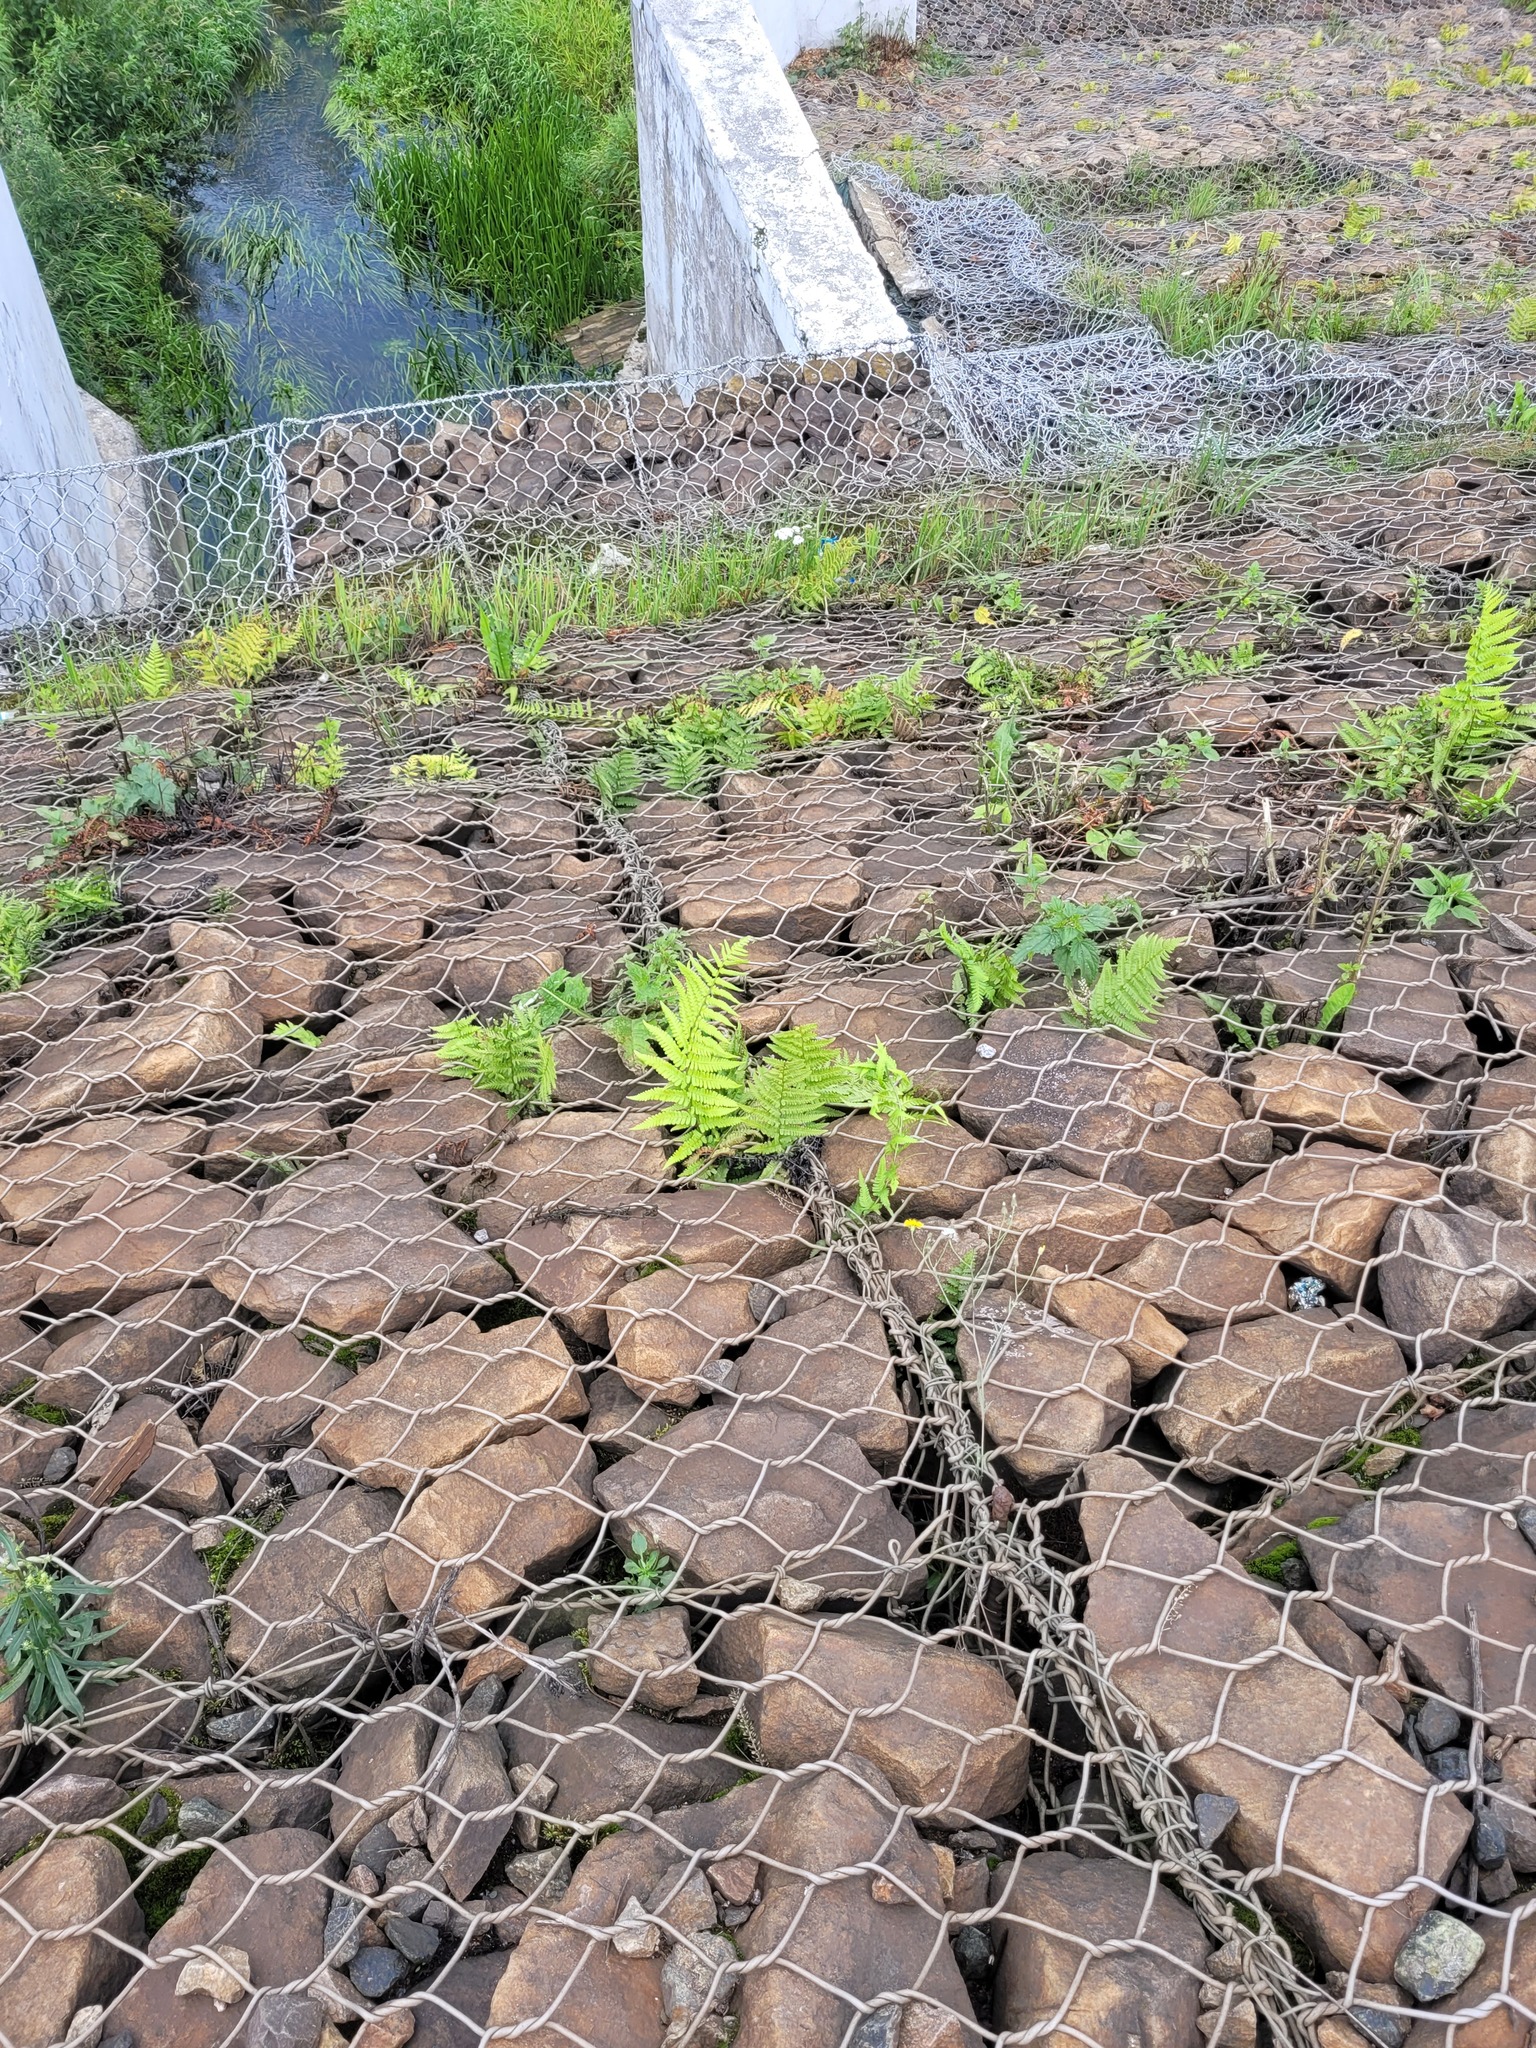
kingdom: Plantae
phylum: Tracheophyta
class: Polypodiopsida
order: Polypodiales
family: Dryopteridaceae
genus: Dryopteris
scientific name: Dryopteris filix-mas
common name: Male fern
